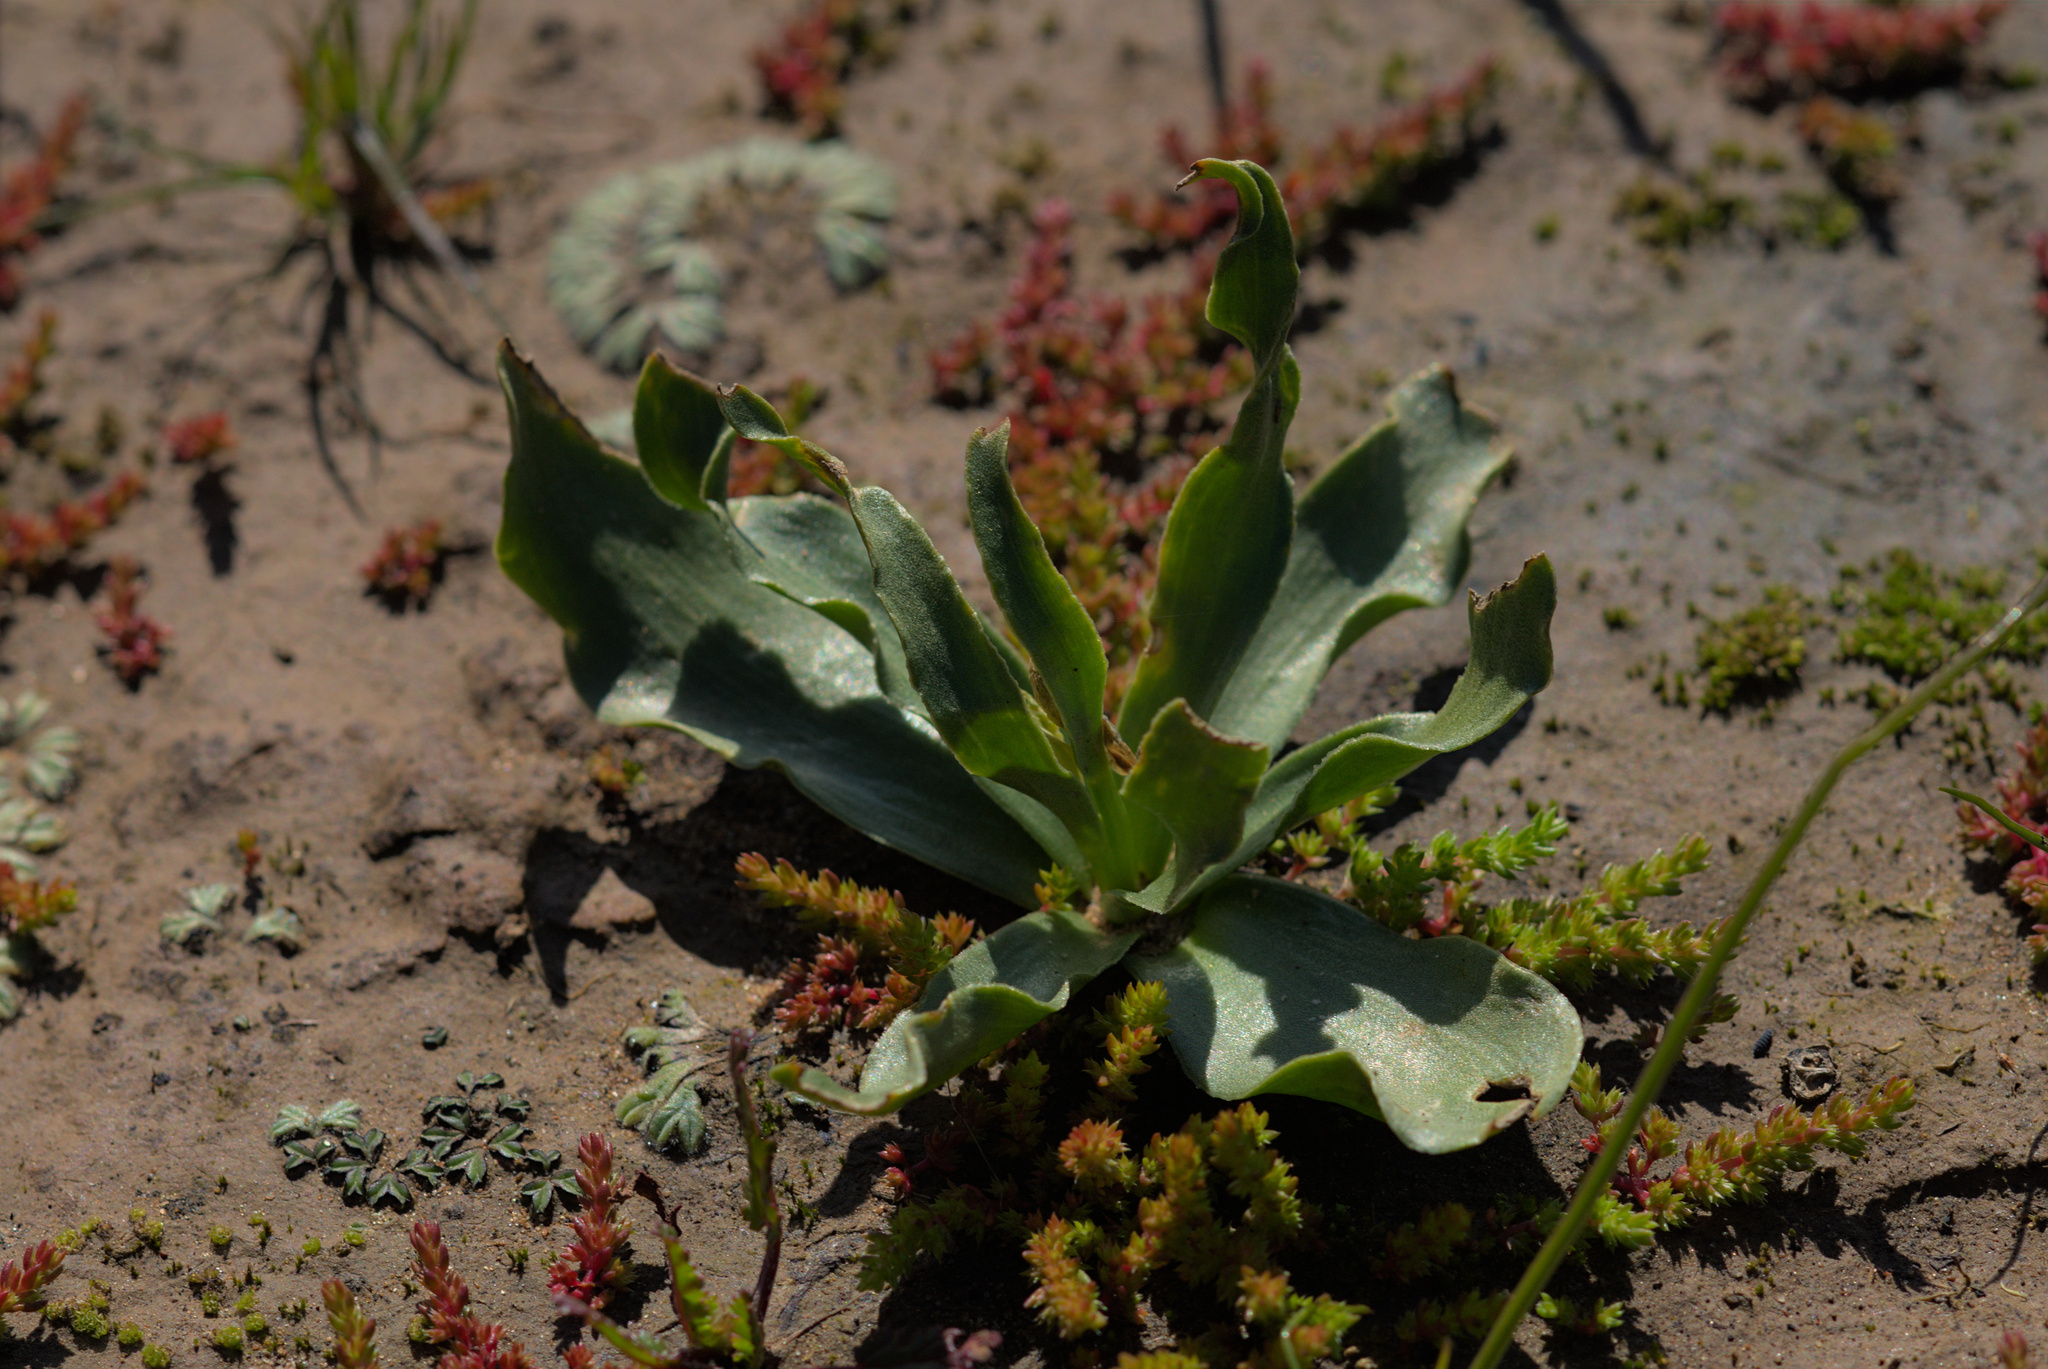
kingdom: Plantae
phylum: Tracheophyta
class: Liliopsida
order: Liliales
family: Liliaceae
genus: Fritillaria
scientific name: Fritillaria liliacea
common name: Fragrant fritillary
